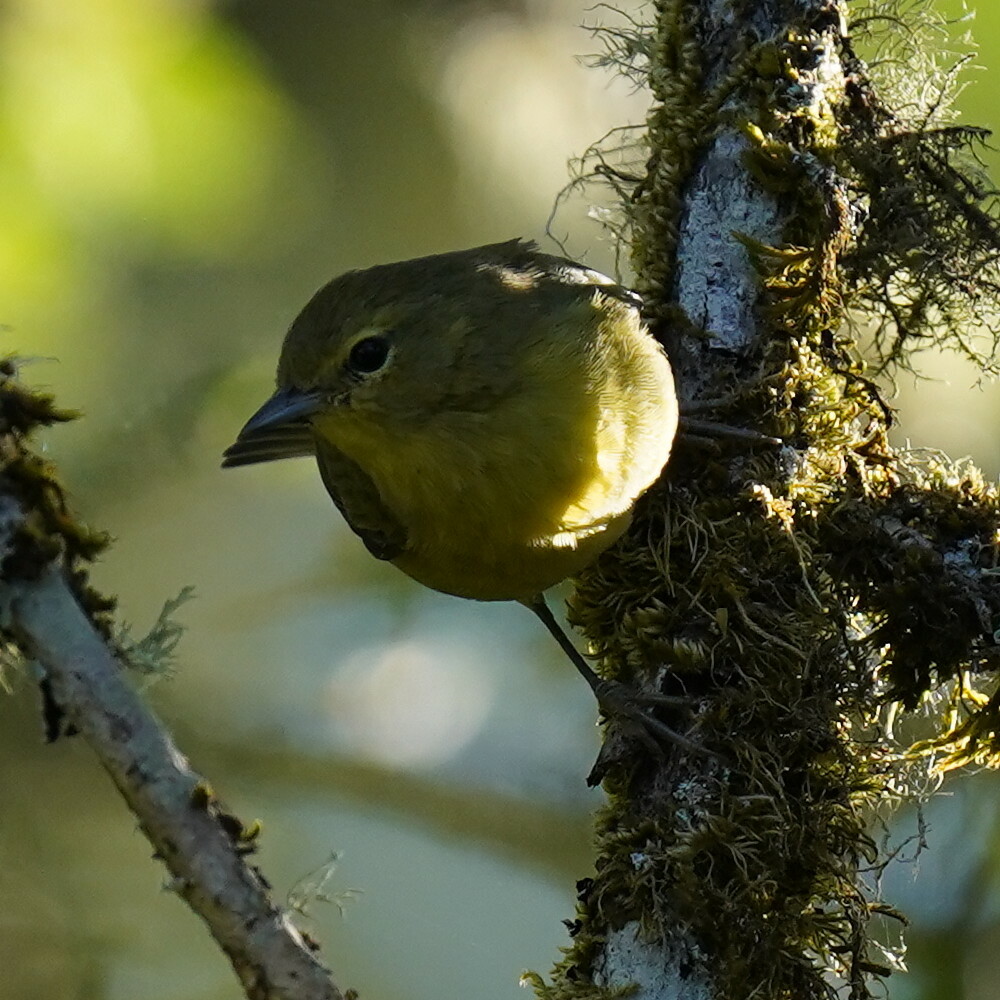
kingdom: Animalia
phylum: Chordata
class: Aves
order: Passeriformes
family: Parulidae
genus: Leiothlypis
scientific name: Leiothlypis celata
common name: Orange-crowned warbler
